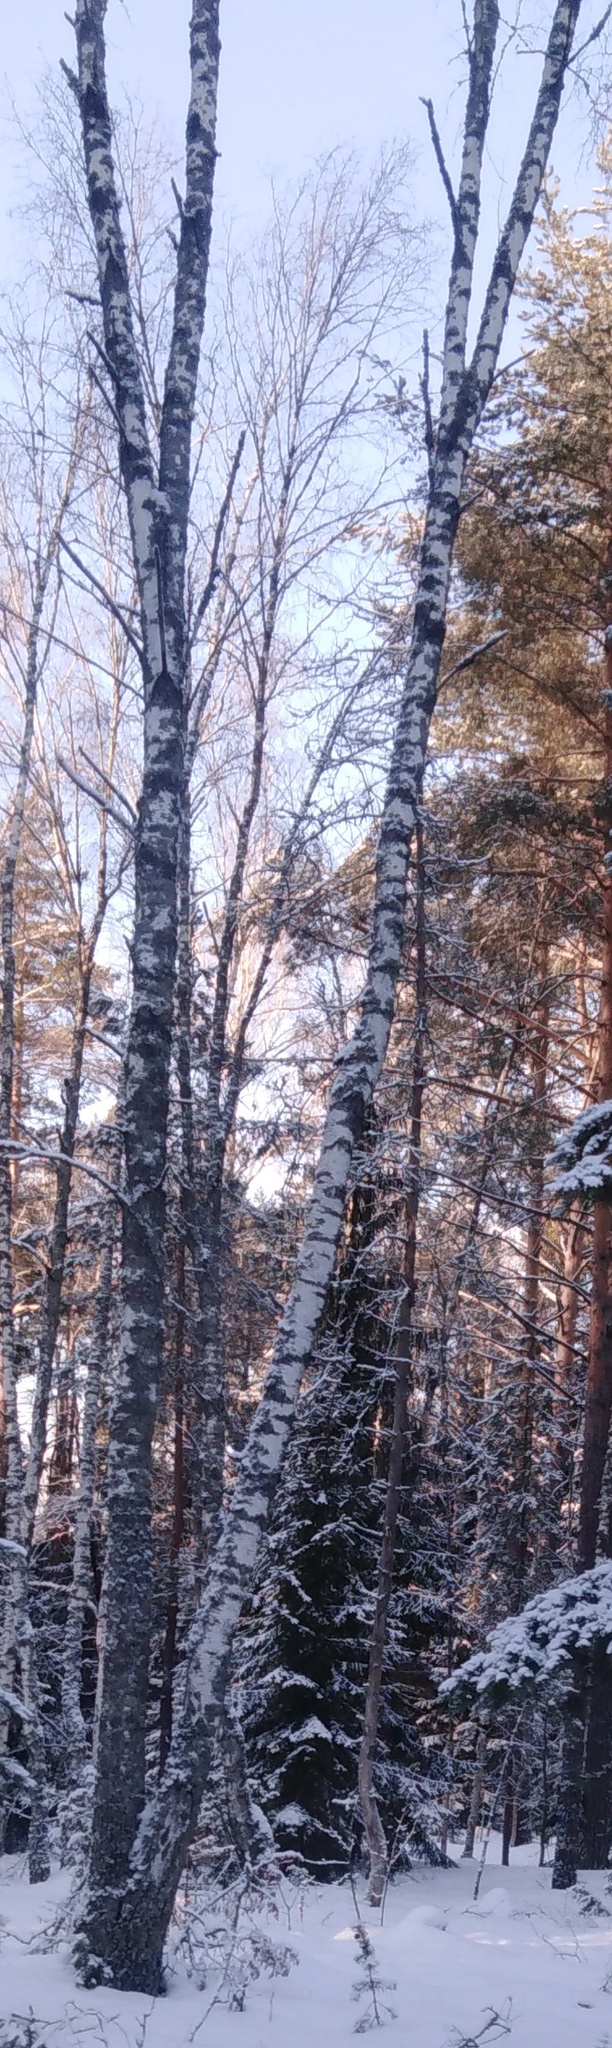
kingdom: Plantae
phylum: Tracheophyta
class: Magnoliopsida
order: Fagales
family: Betulaceae
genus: Betula
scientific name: Betula pendula
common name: Silver birch
